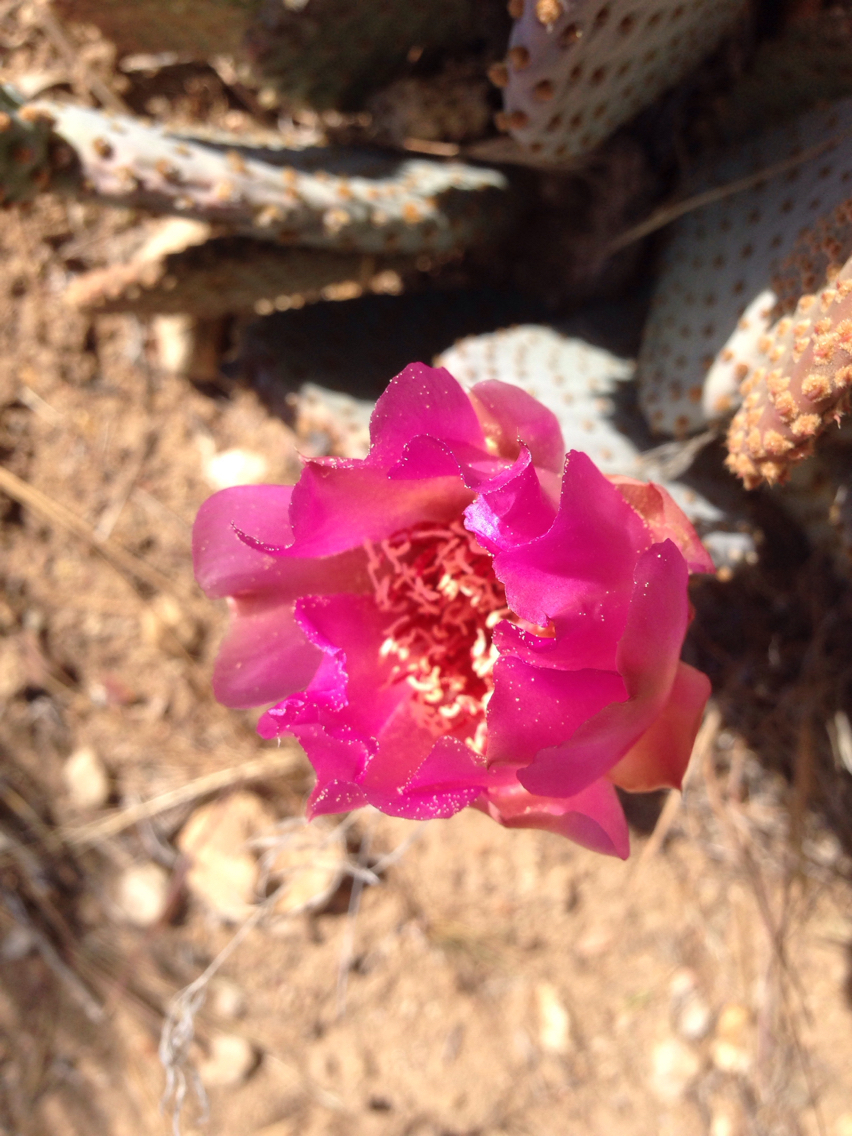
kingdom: Plantae
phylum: Tracheophyta
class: Magnoliopsida
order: Caryophyllales
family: Cactaceae
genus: Opuntia
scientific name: Opuntia basilaris
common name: Beavertail prickly-pear
